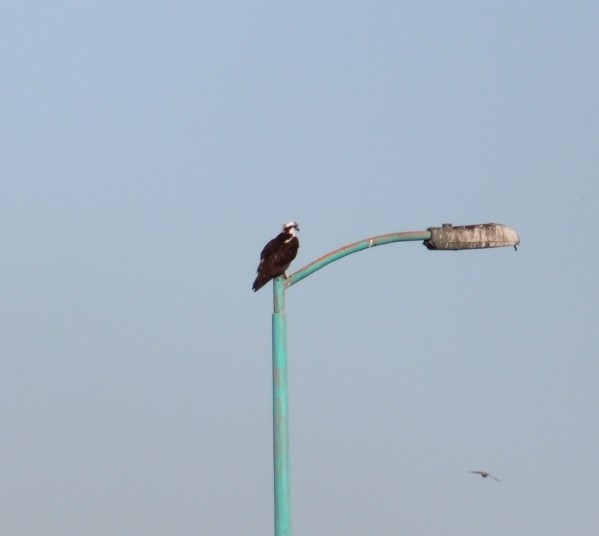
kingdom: Animalia
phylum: Chordata
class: Aves
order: Accipitriformes
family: Pandionidae
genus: Pandion
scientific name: Pandion haliaetus
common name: Osprey
